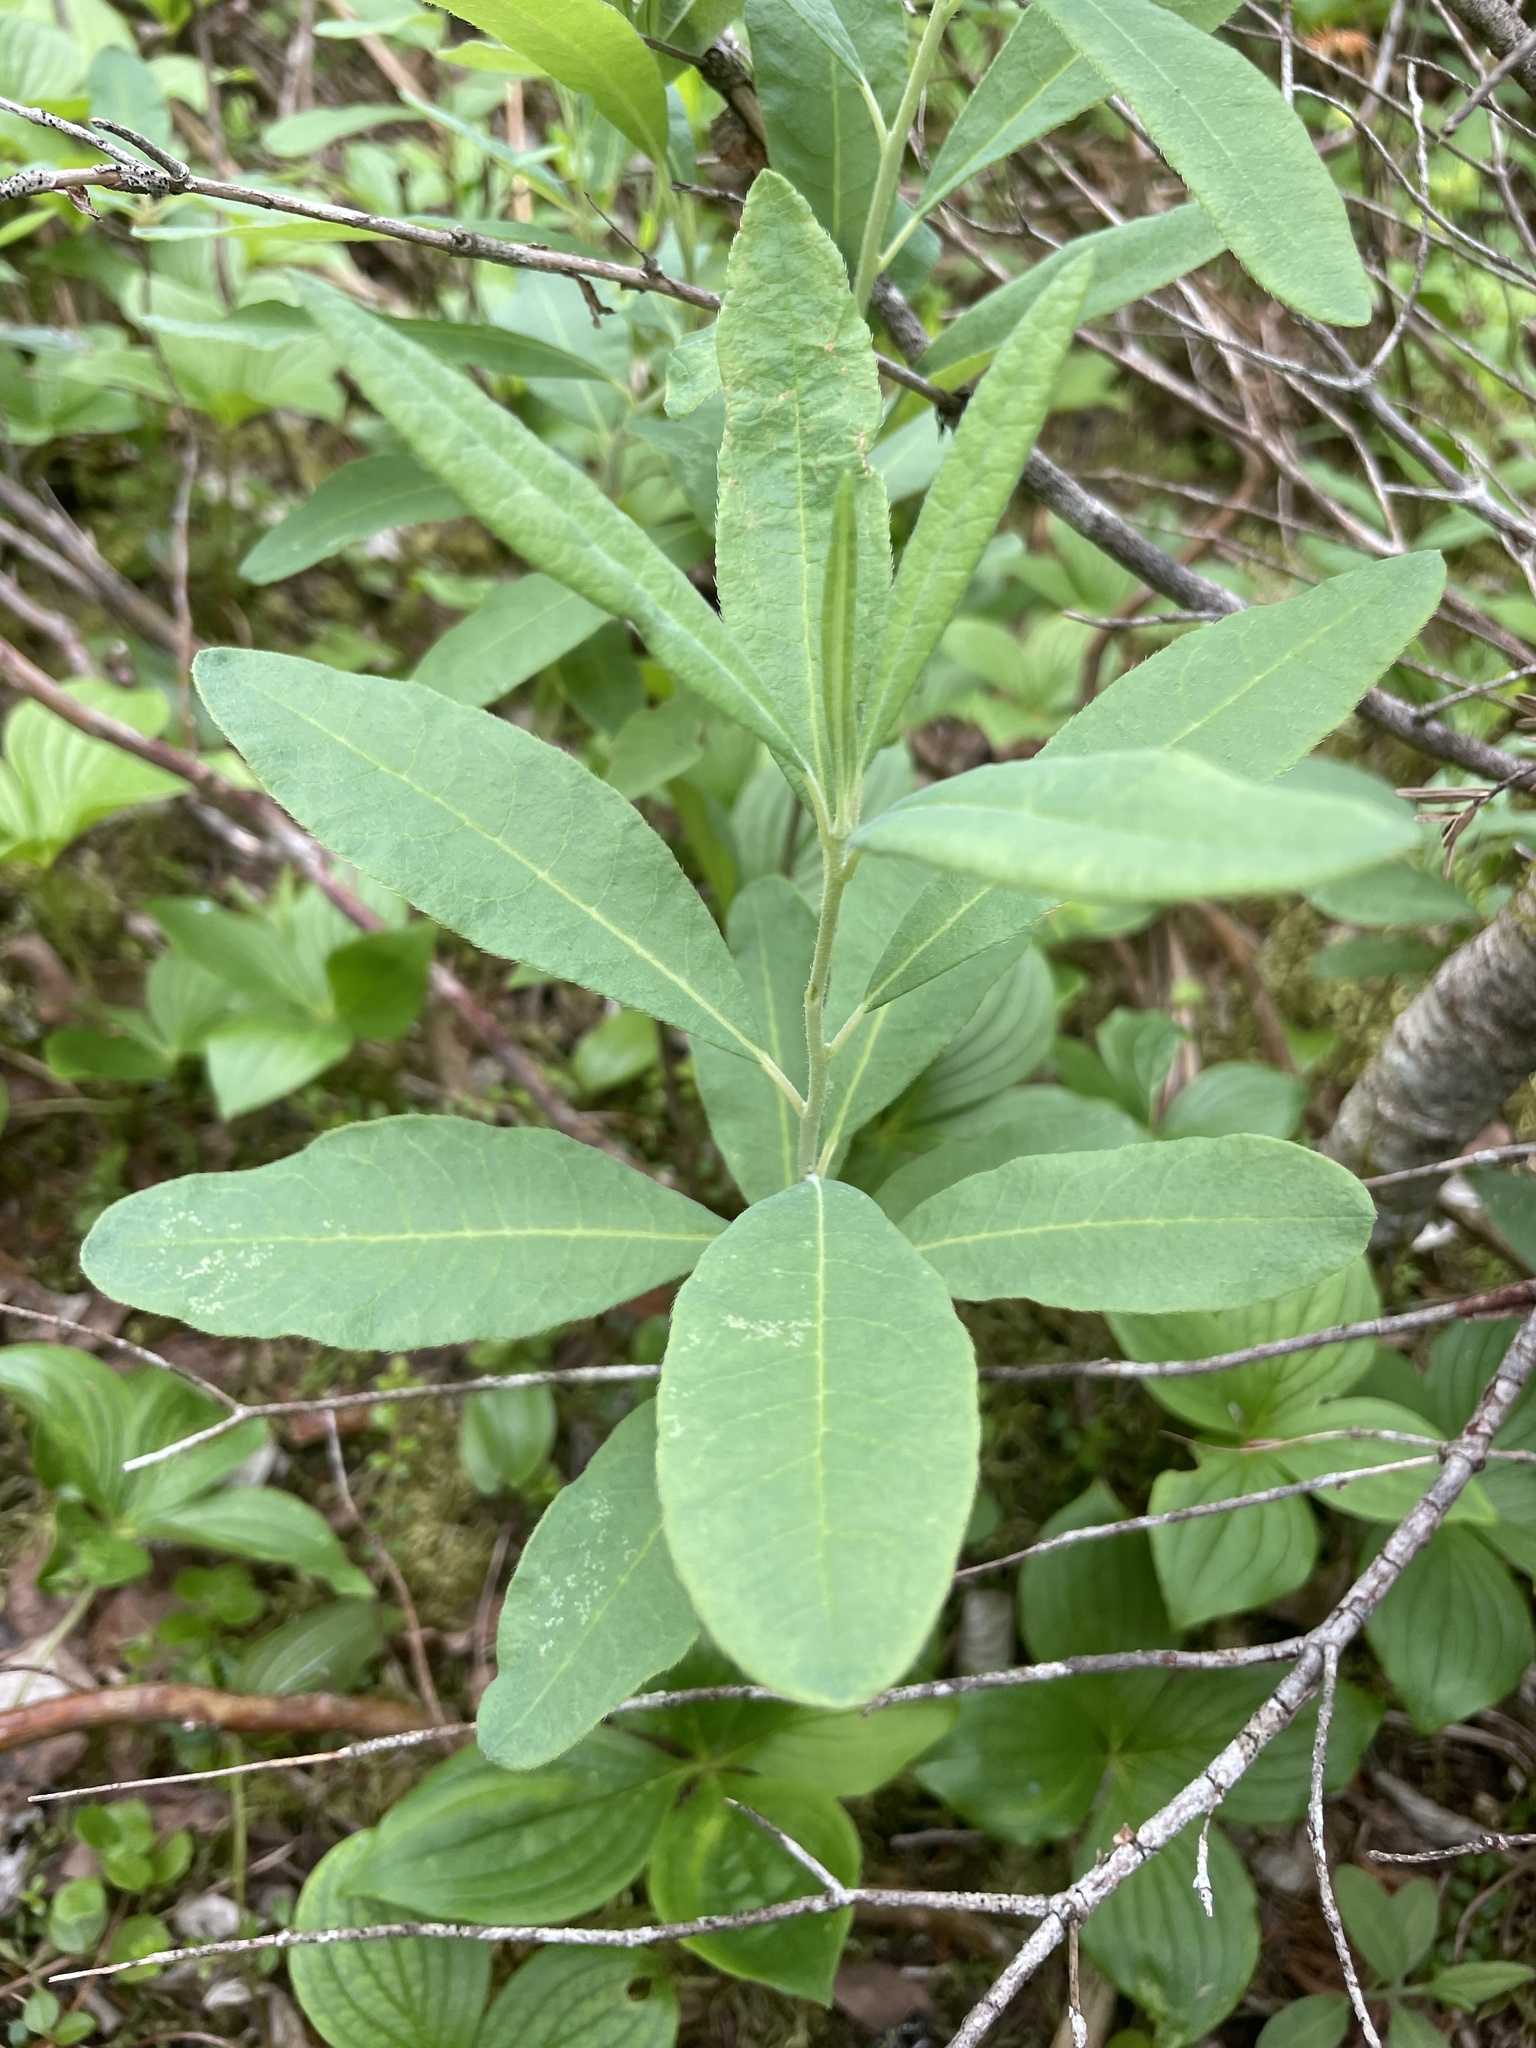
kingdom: Plantae
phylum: Tracheophyta
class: Magnoliopsida
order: Ericales
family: Ericaceae
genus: Rhododendron
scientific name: Rhododendron canadense
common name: Rhodora
